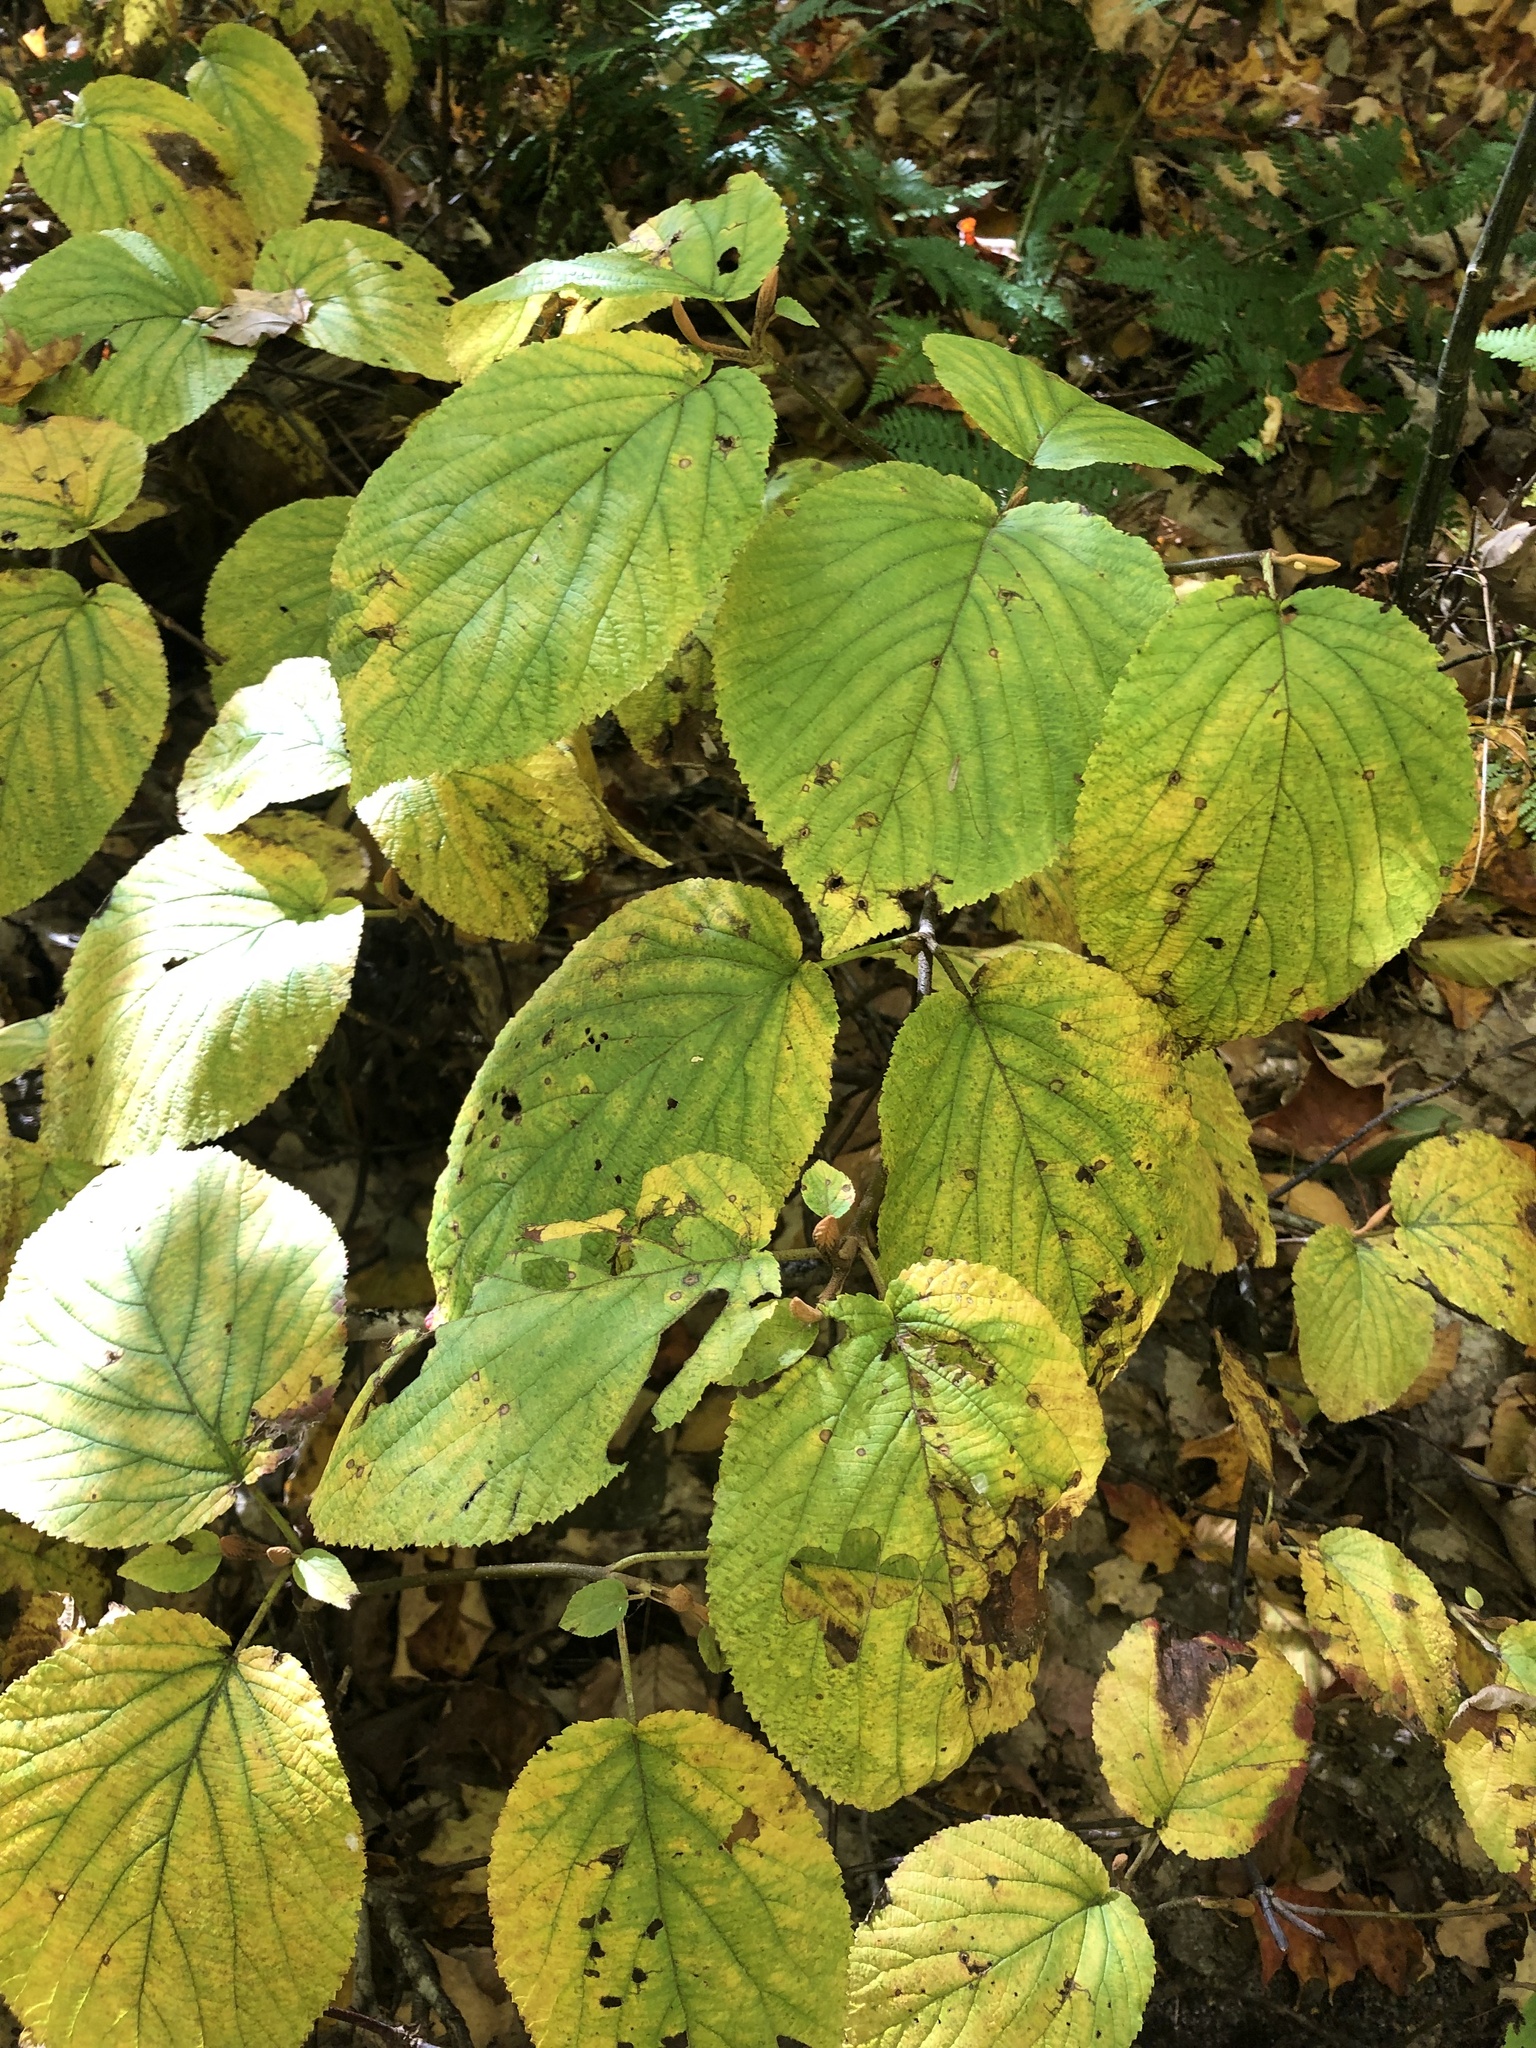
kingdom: Plantae
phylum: Tracheophyta
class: Magnoliopsida
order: Dipsacales
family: Viburnaceae
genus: Viburnum
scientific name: Viburnum lantanoides
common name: Hobblebush
